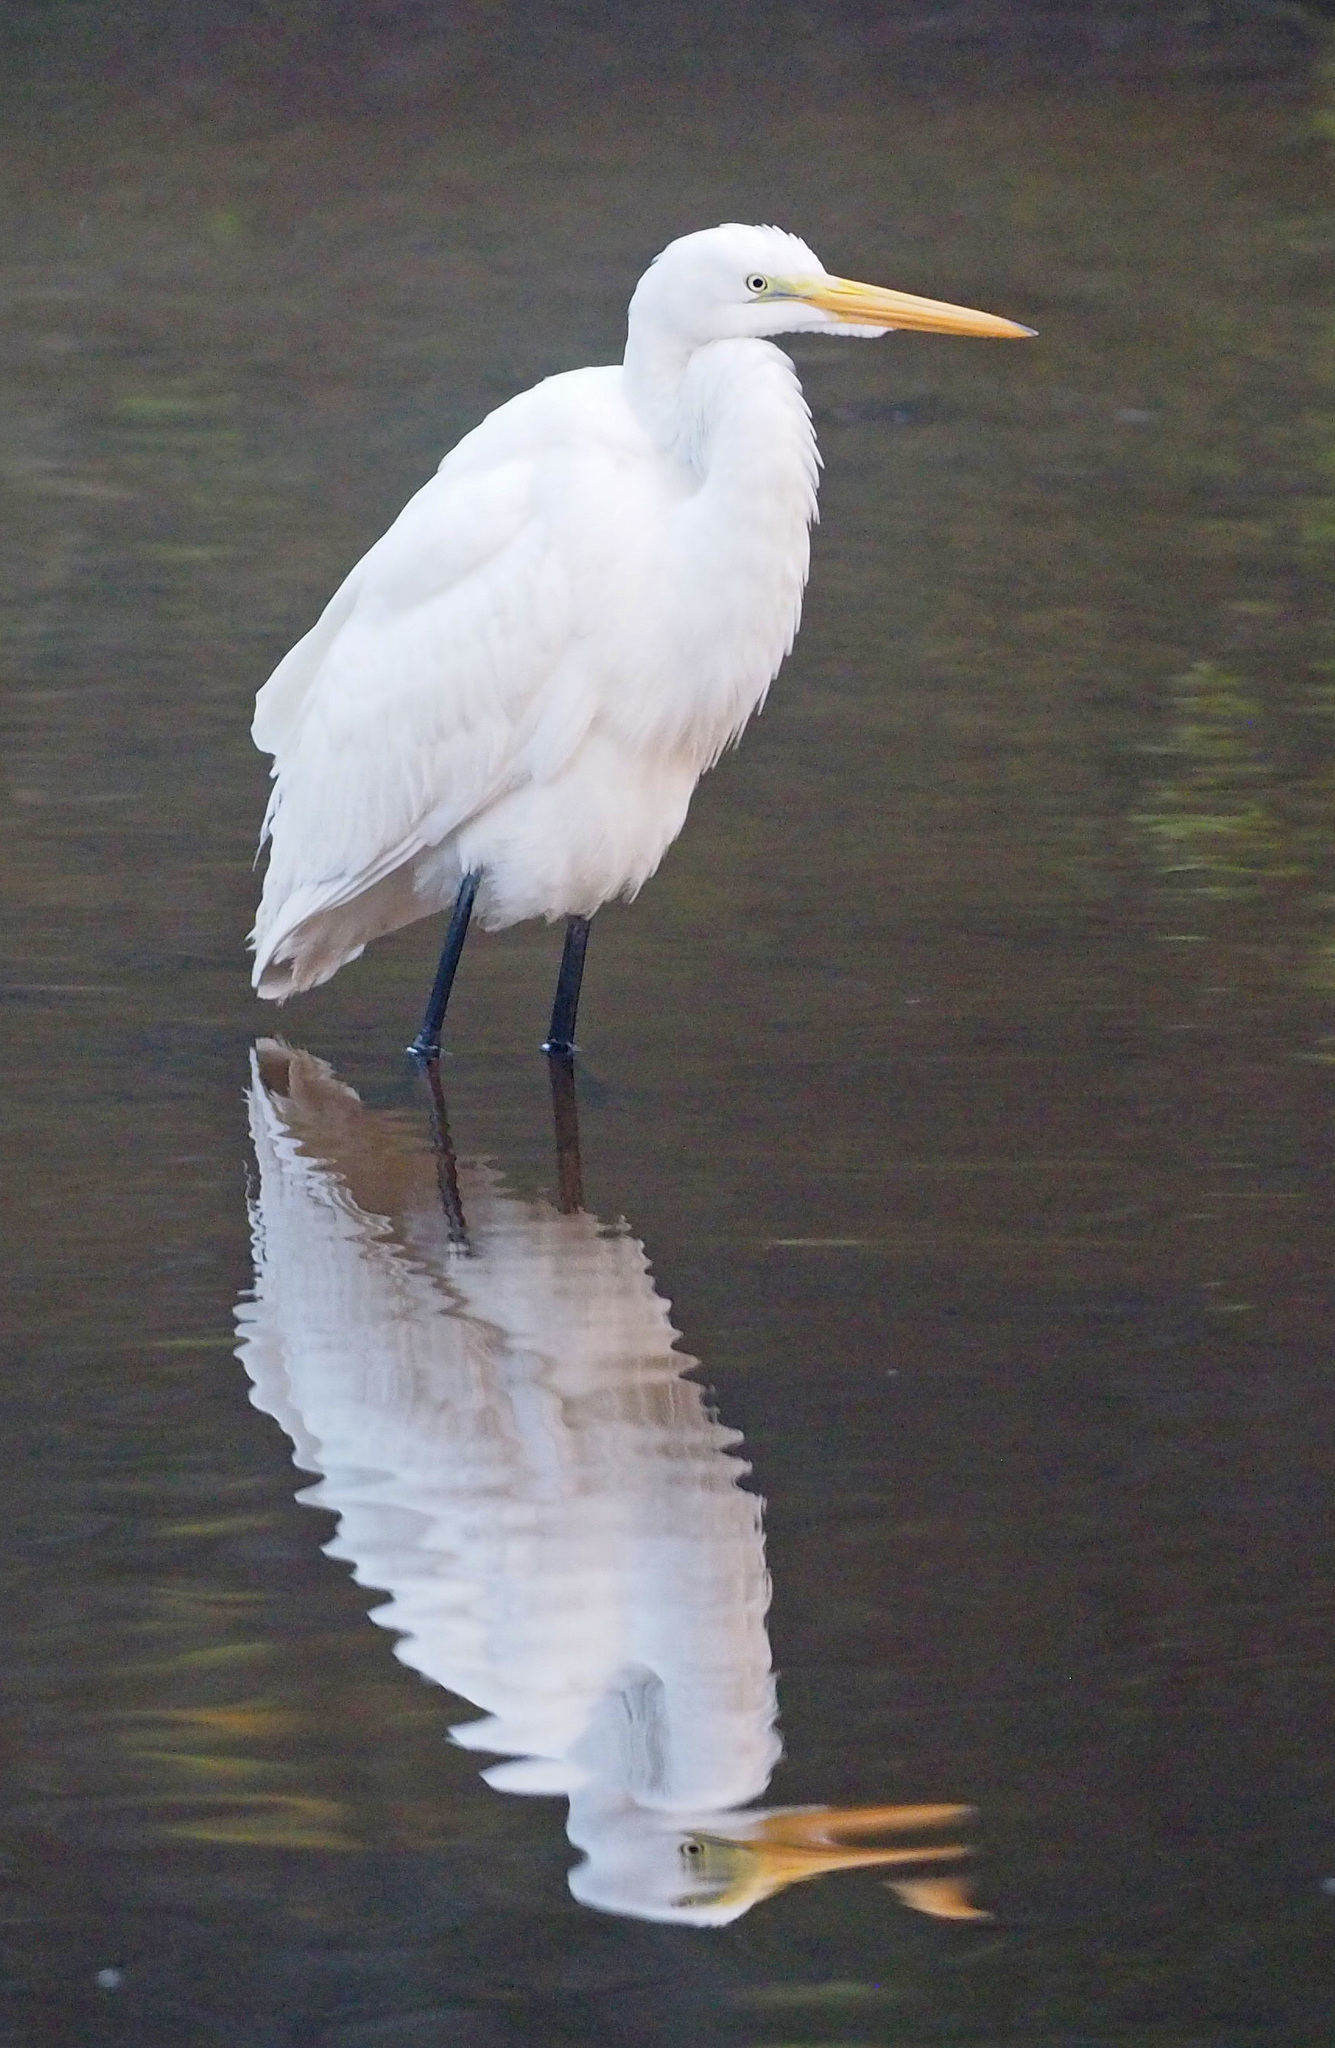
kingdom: Animalia
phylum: Chordata
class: Aves
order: Pelecaniformes
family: Ardeidae
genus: Ardea
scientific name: Ardea alba
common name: Great egret
